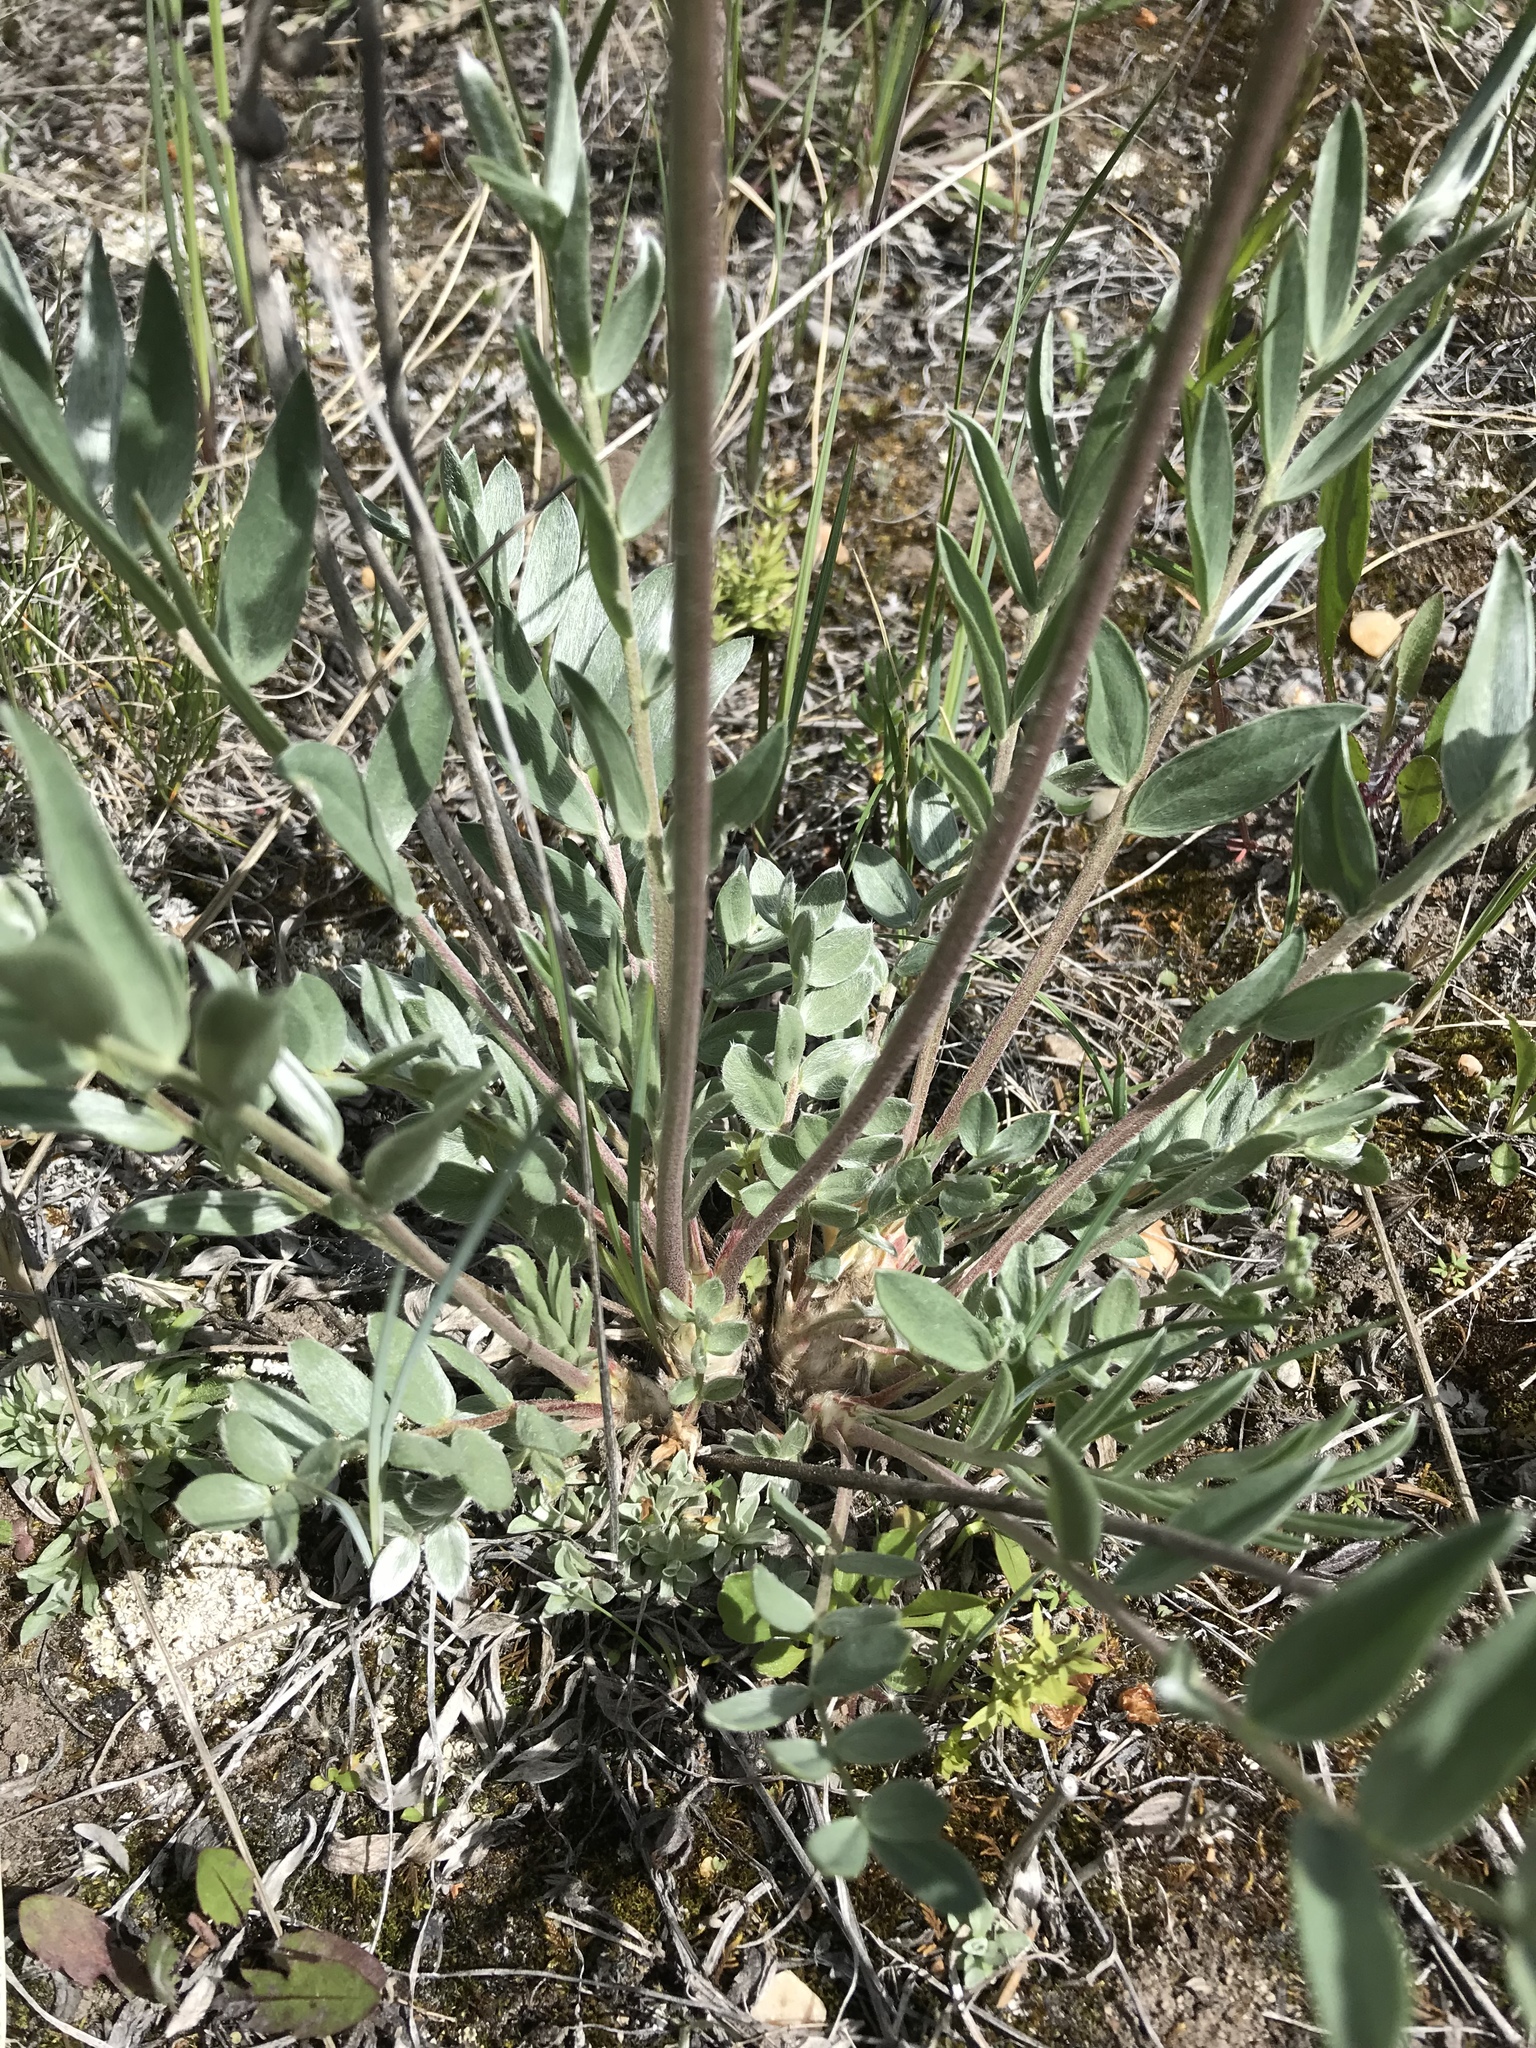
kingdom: Plantae
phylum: Tracheophyta
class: Magnoliopsida
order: Fabales
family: Fabaceae
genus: Oxytropis
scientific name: Oxytropis campestris
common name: Field locoweed
